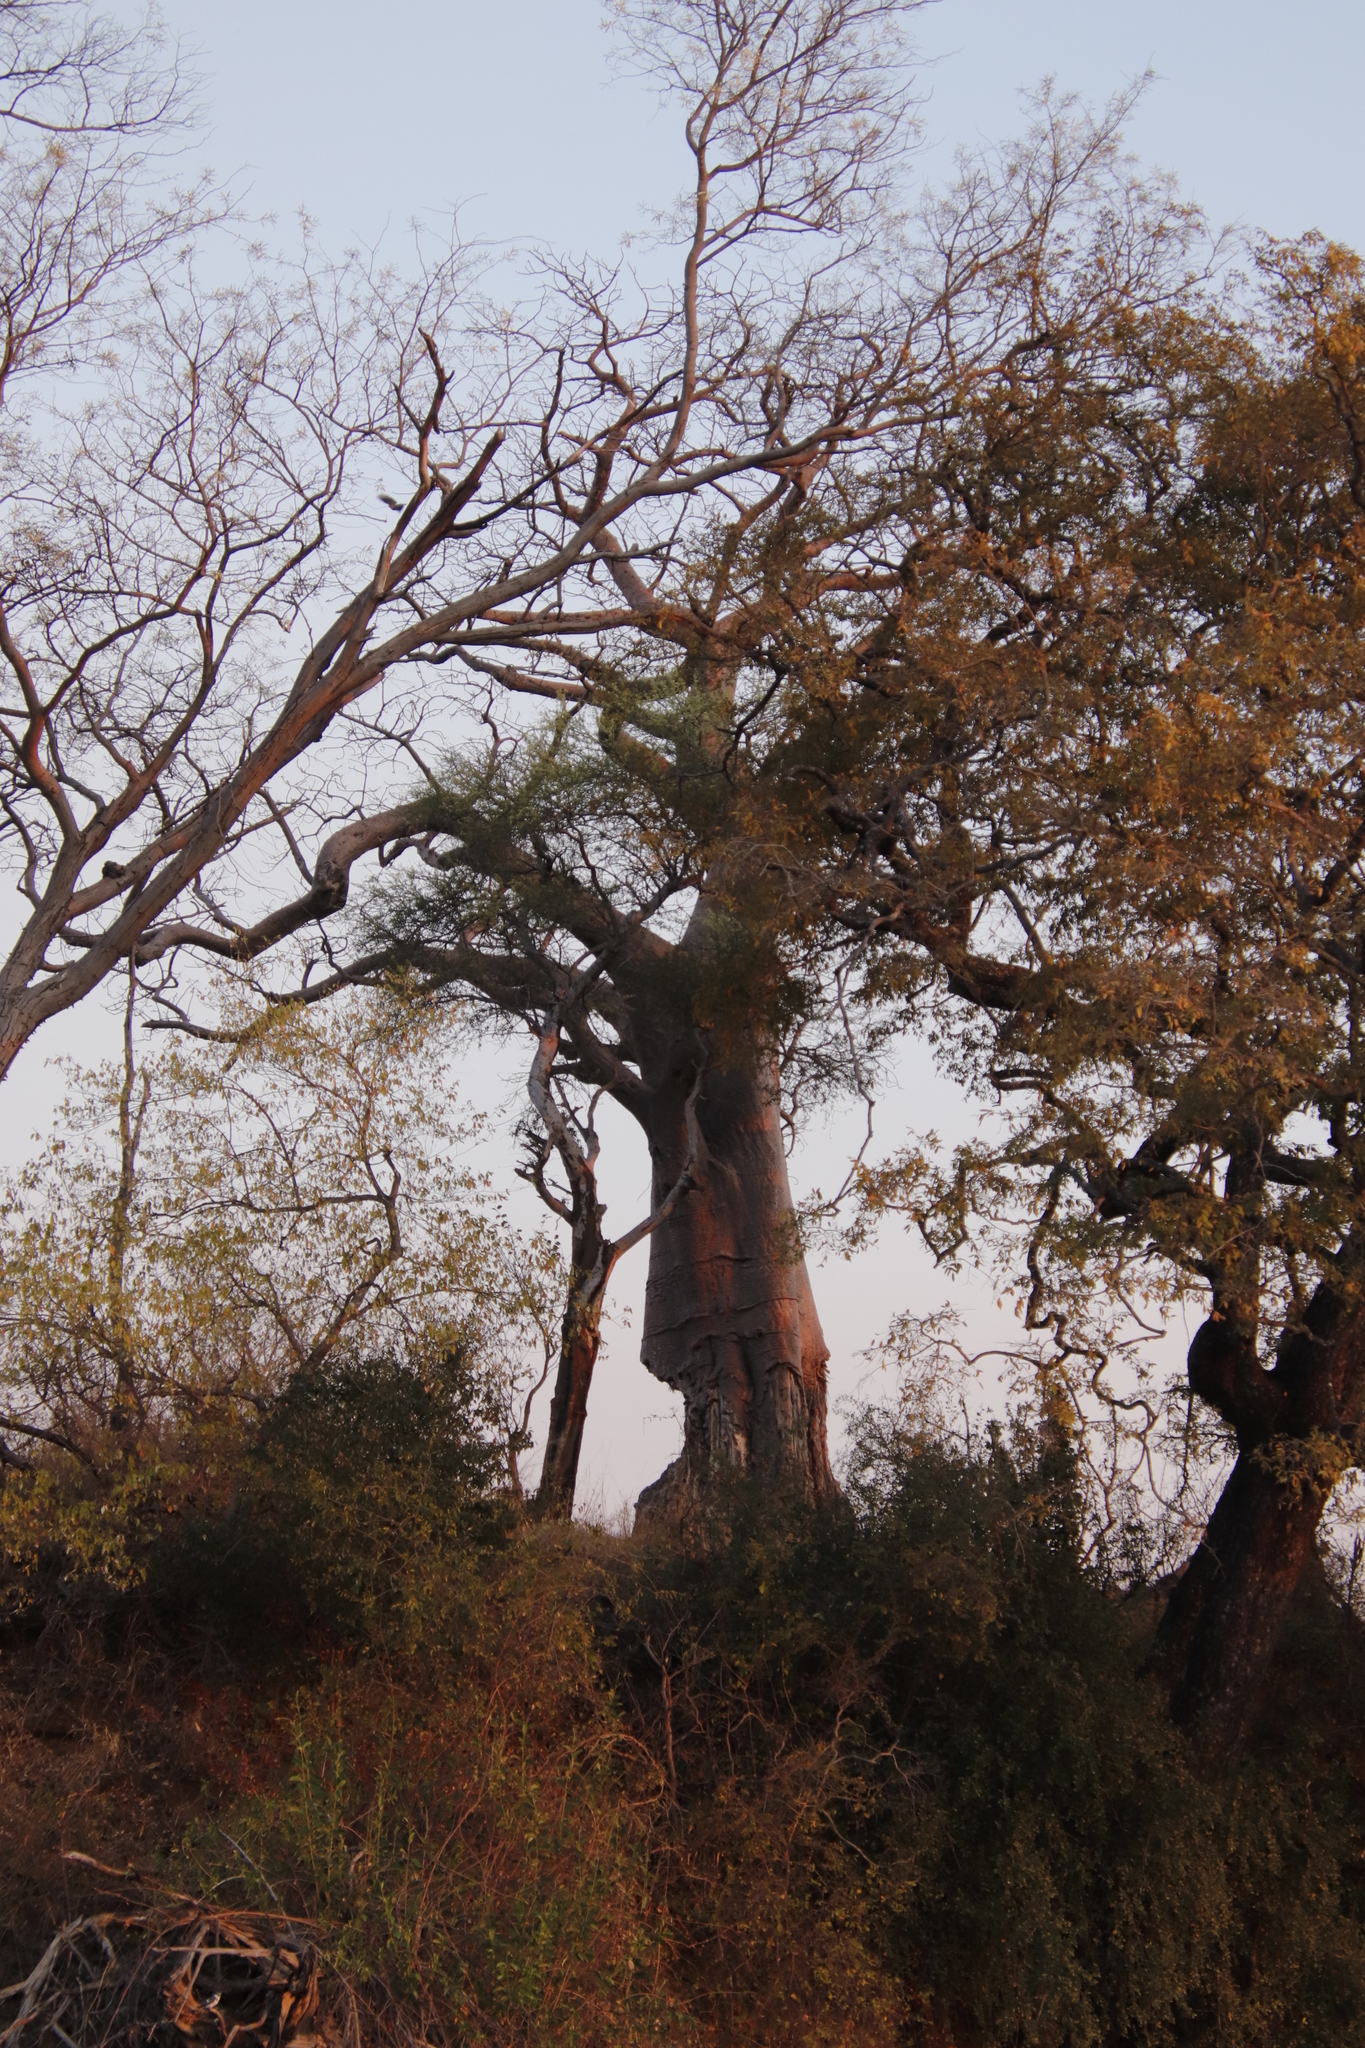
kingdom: Plantae
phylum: Tracheophyta
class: Magnoliopsida
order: Malvales
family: Malvaceae
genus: Adansonia
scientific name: Adansonia digitata
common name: Dead-rat-tree
